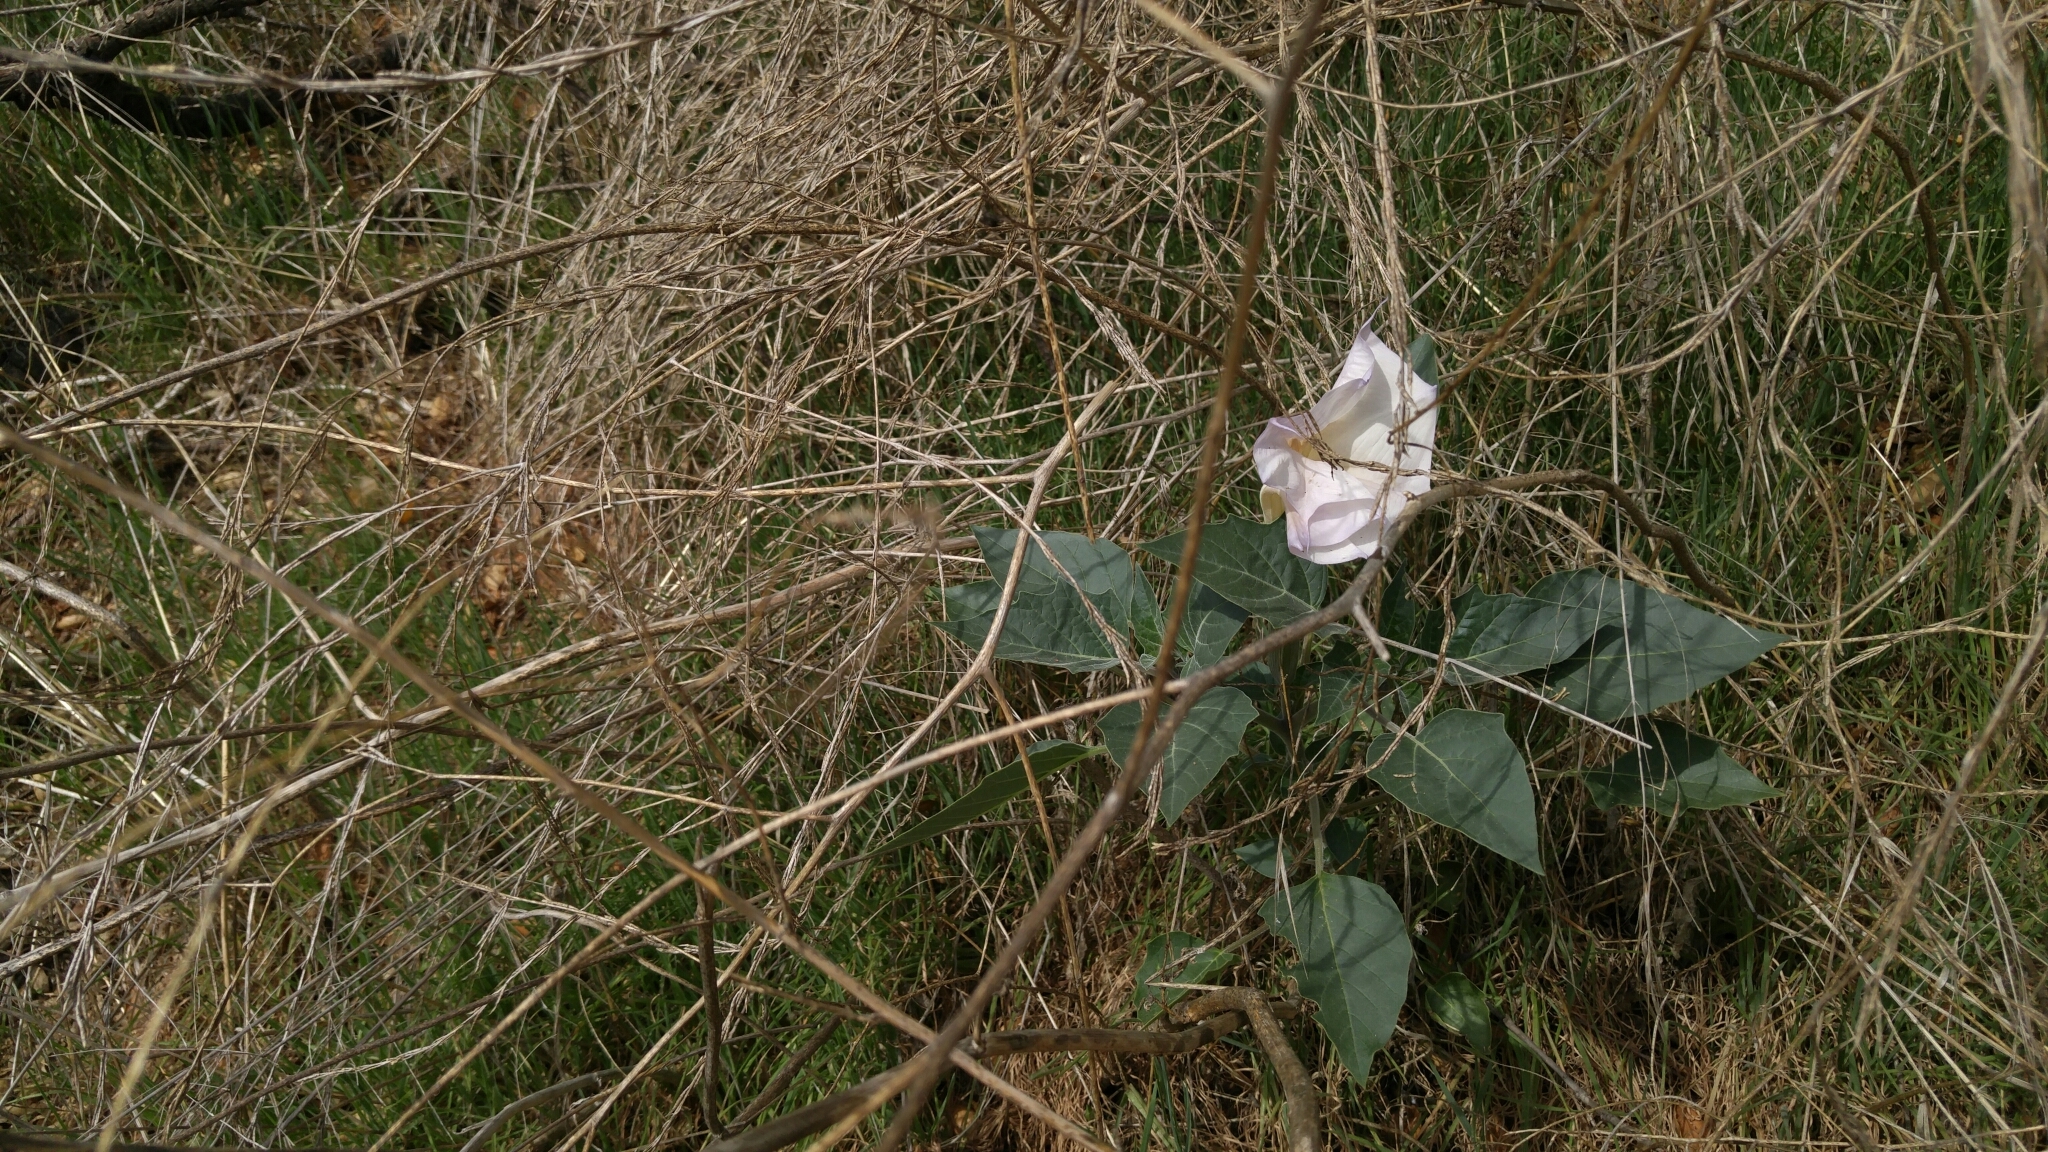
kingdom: Plantae
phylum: Tracheophyta
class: Magnoliopsida
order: Solanales
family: Solanaceae
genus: Datura
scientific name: Datura wrightii
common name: Sacred thorn-apple
